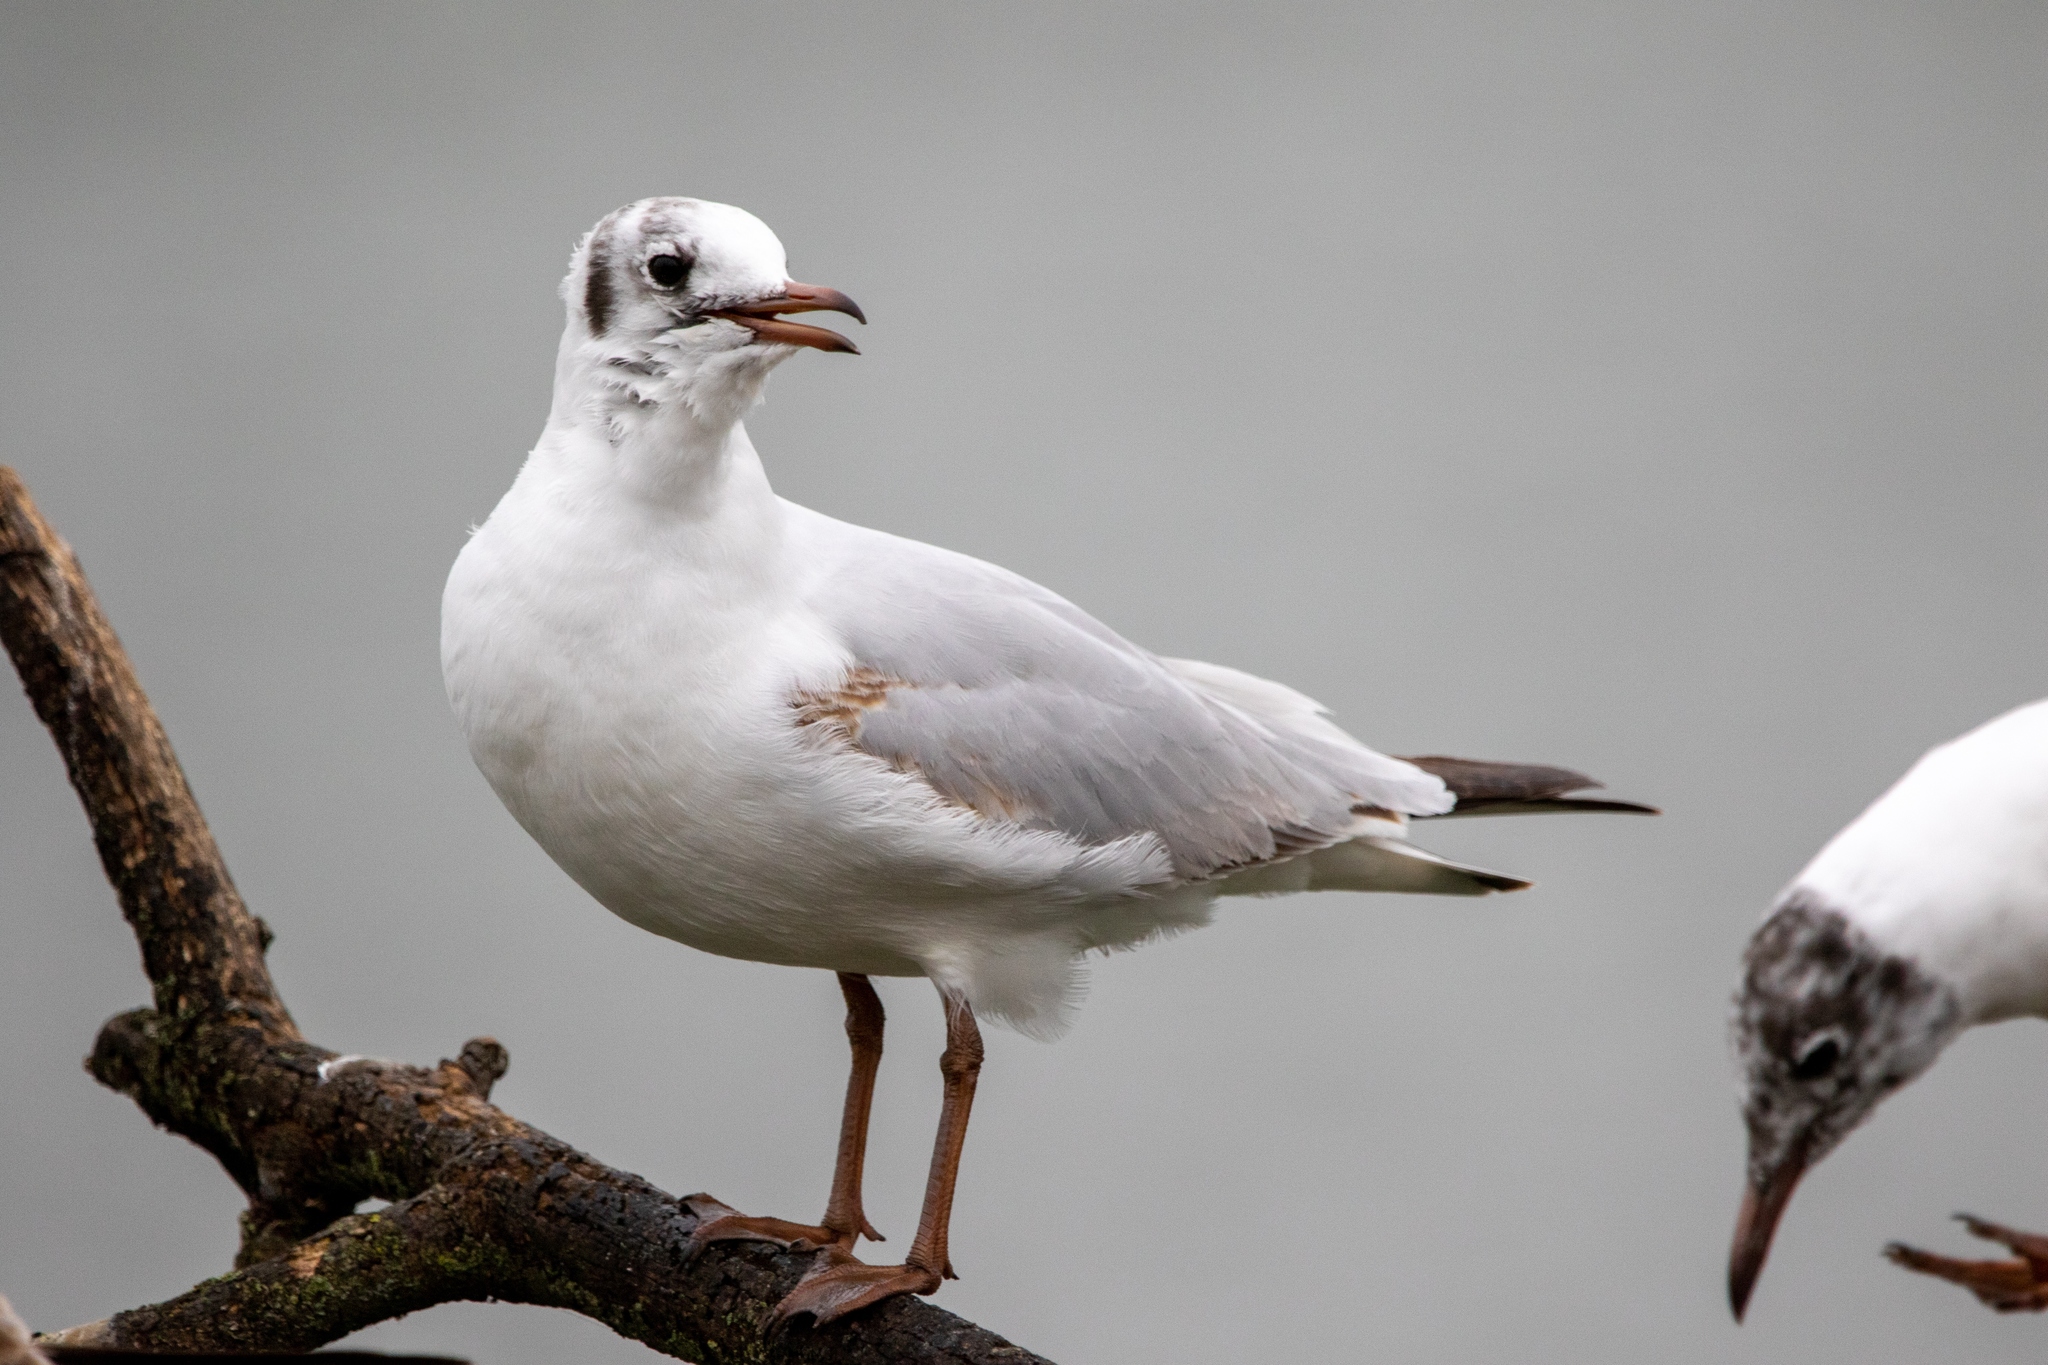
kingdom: Animalia
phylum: Chordata
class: Aves
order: Charadriiformes
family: Laridae
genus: Chroicocephalus
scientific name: Chroicocephalus ridibundus
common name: Black-headed gull
